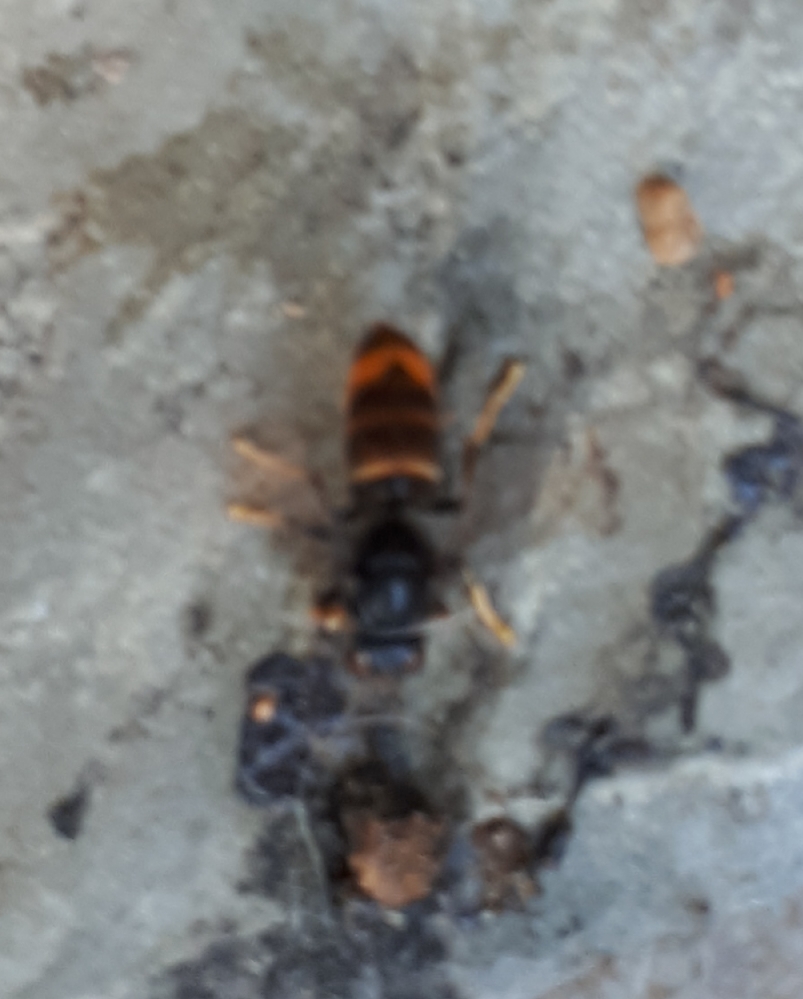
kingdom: Animalia
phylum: Arthropoda
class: Insecta
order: Hymenoptera
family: Vespidae
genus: Vespa
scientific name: Vespa velutina
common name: Asian hornet
